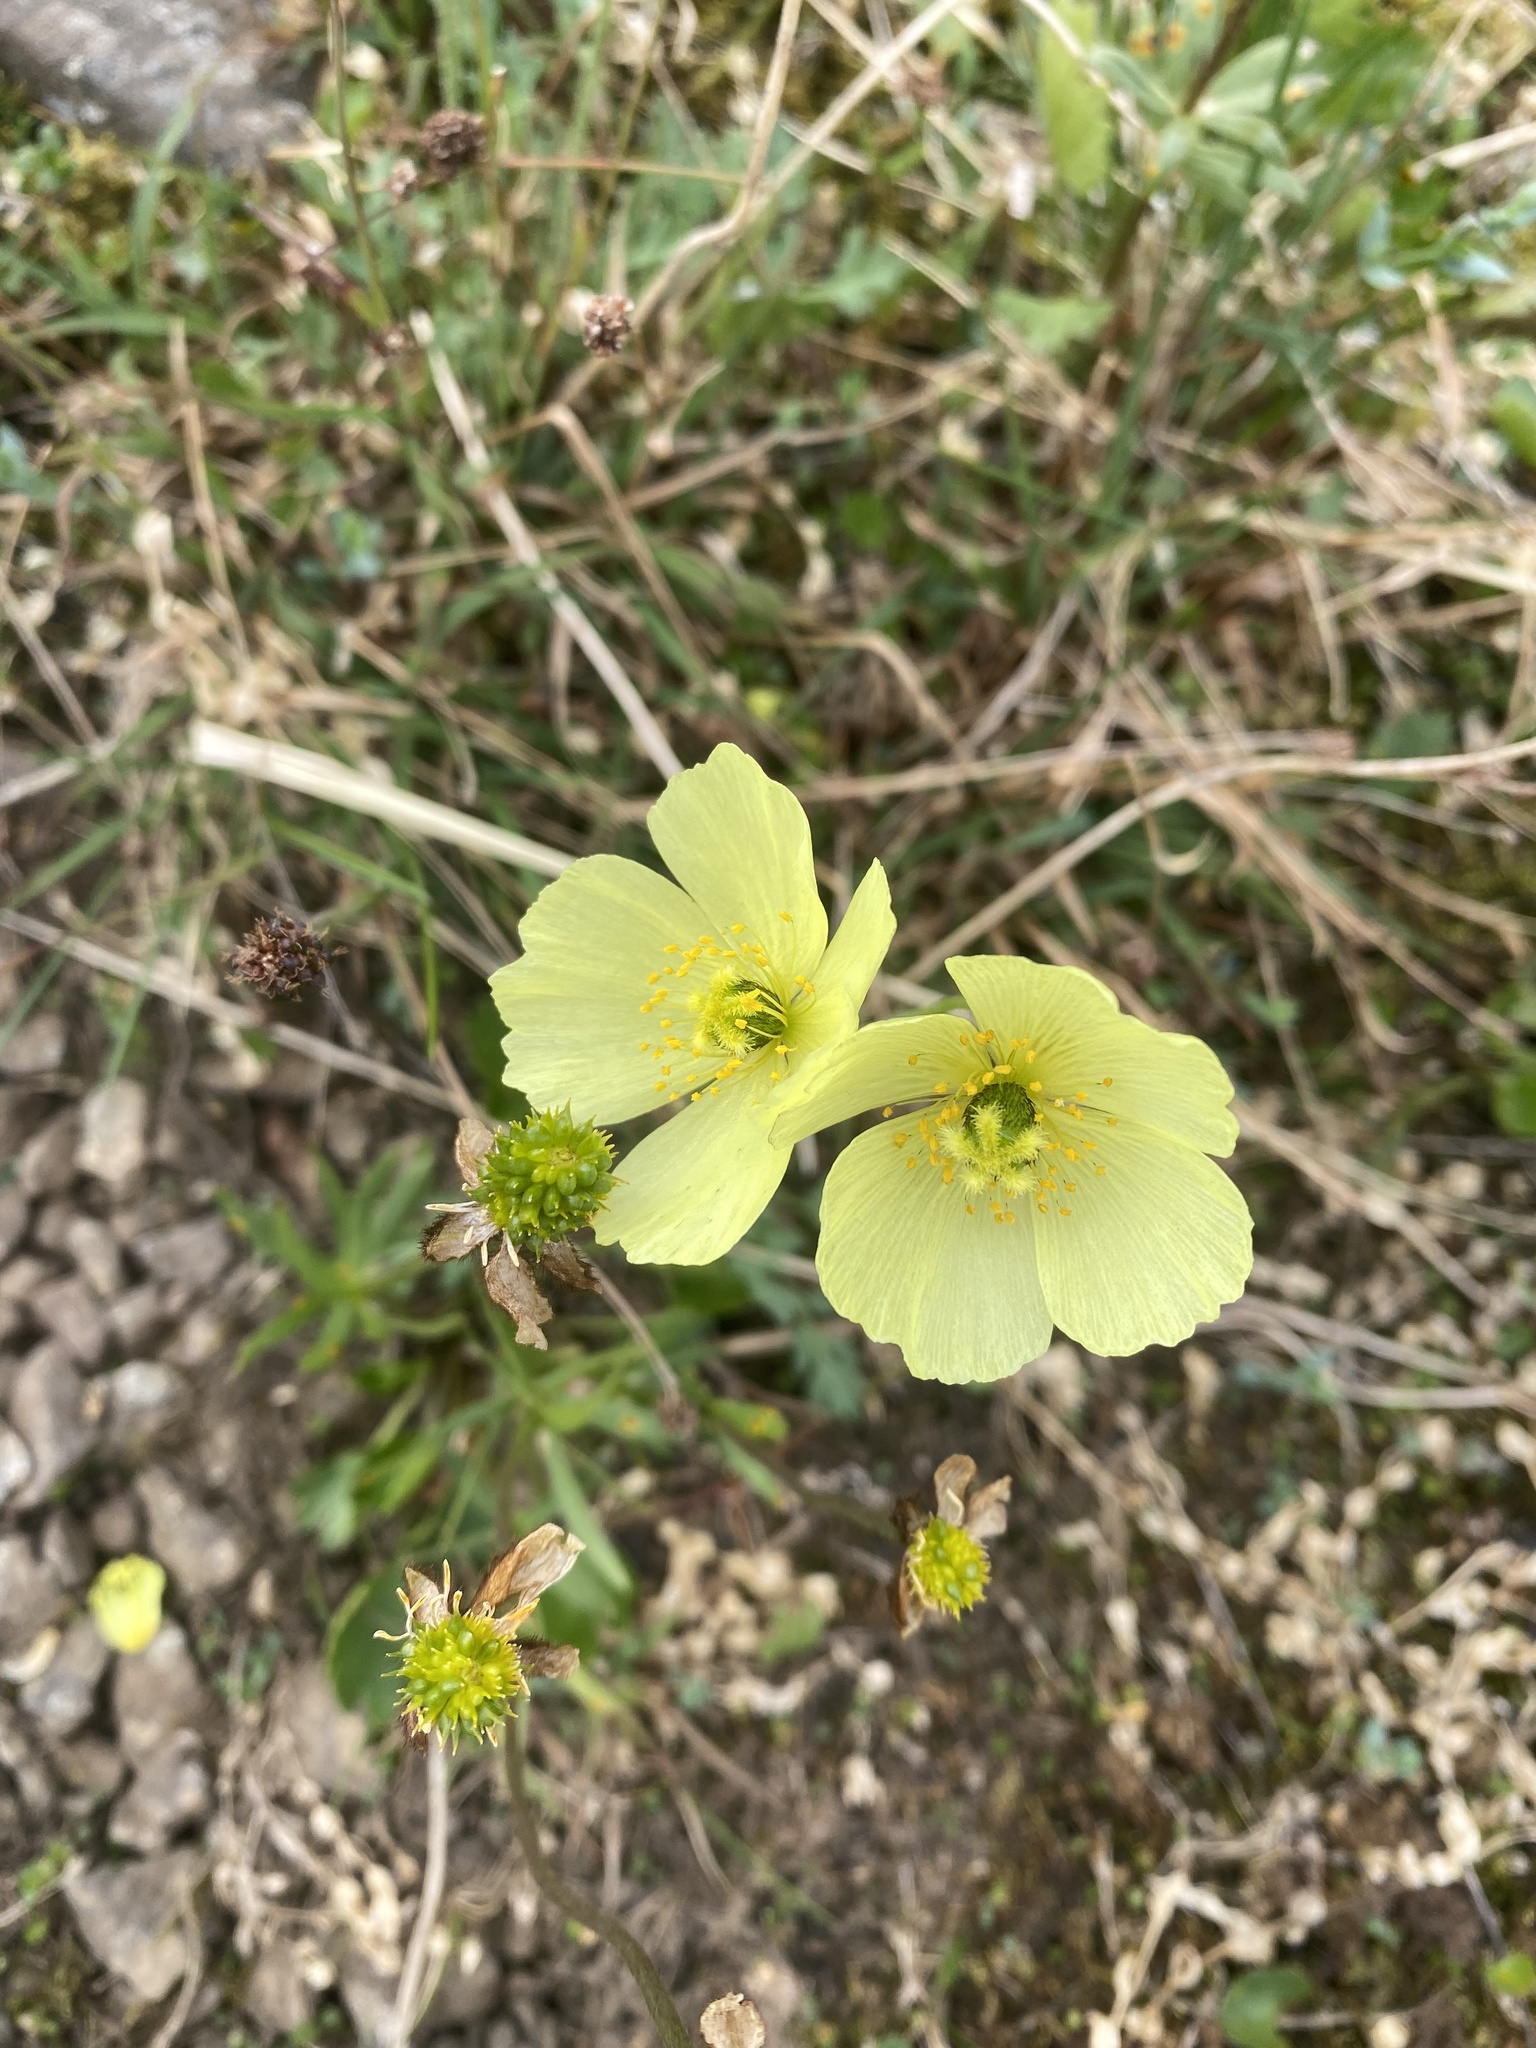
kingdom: Plantae
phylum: Tracheophyta
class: Magnoliopsida
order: Ranunculales
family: Papaveraceae
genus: Papaver
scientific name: Papaver pulvinatum
